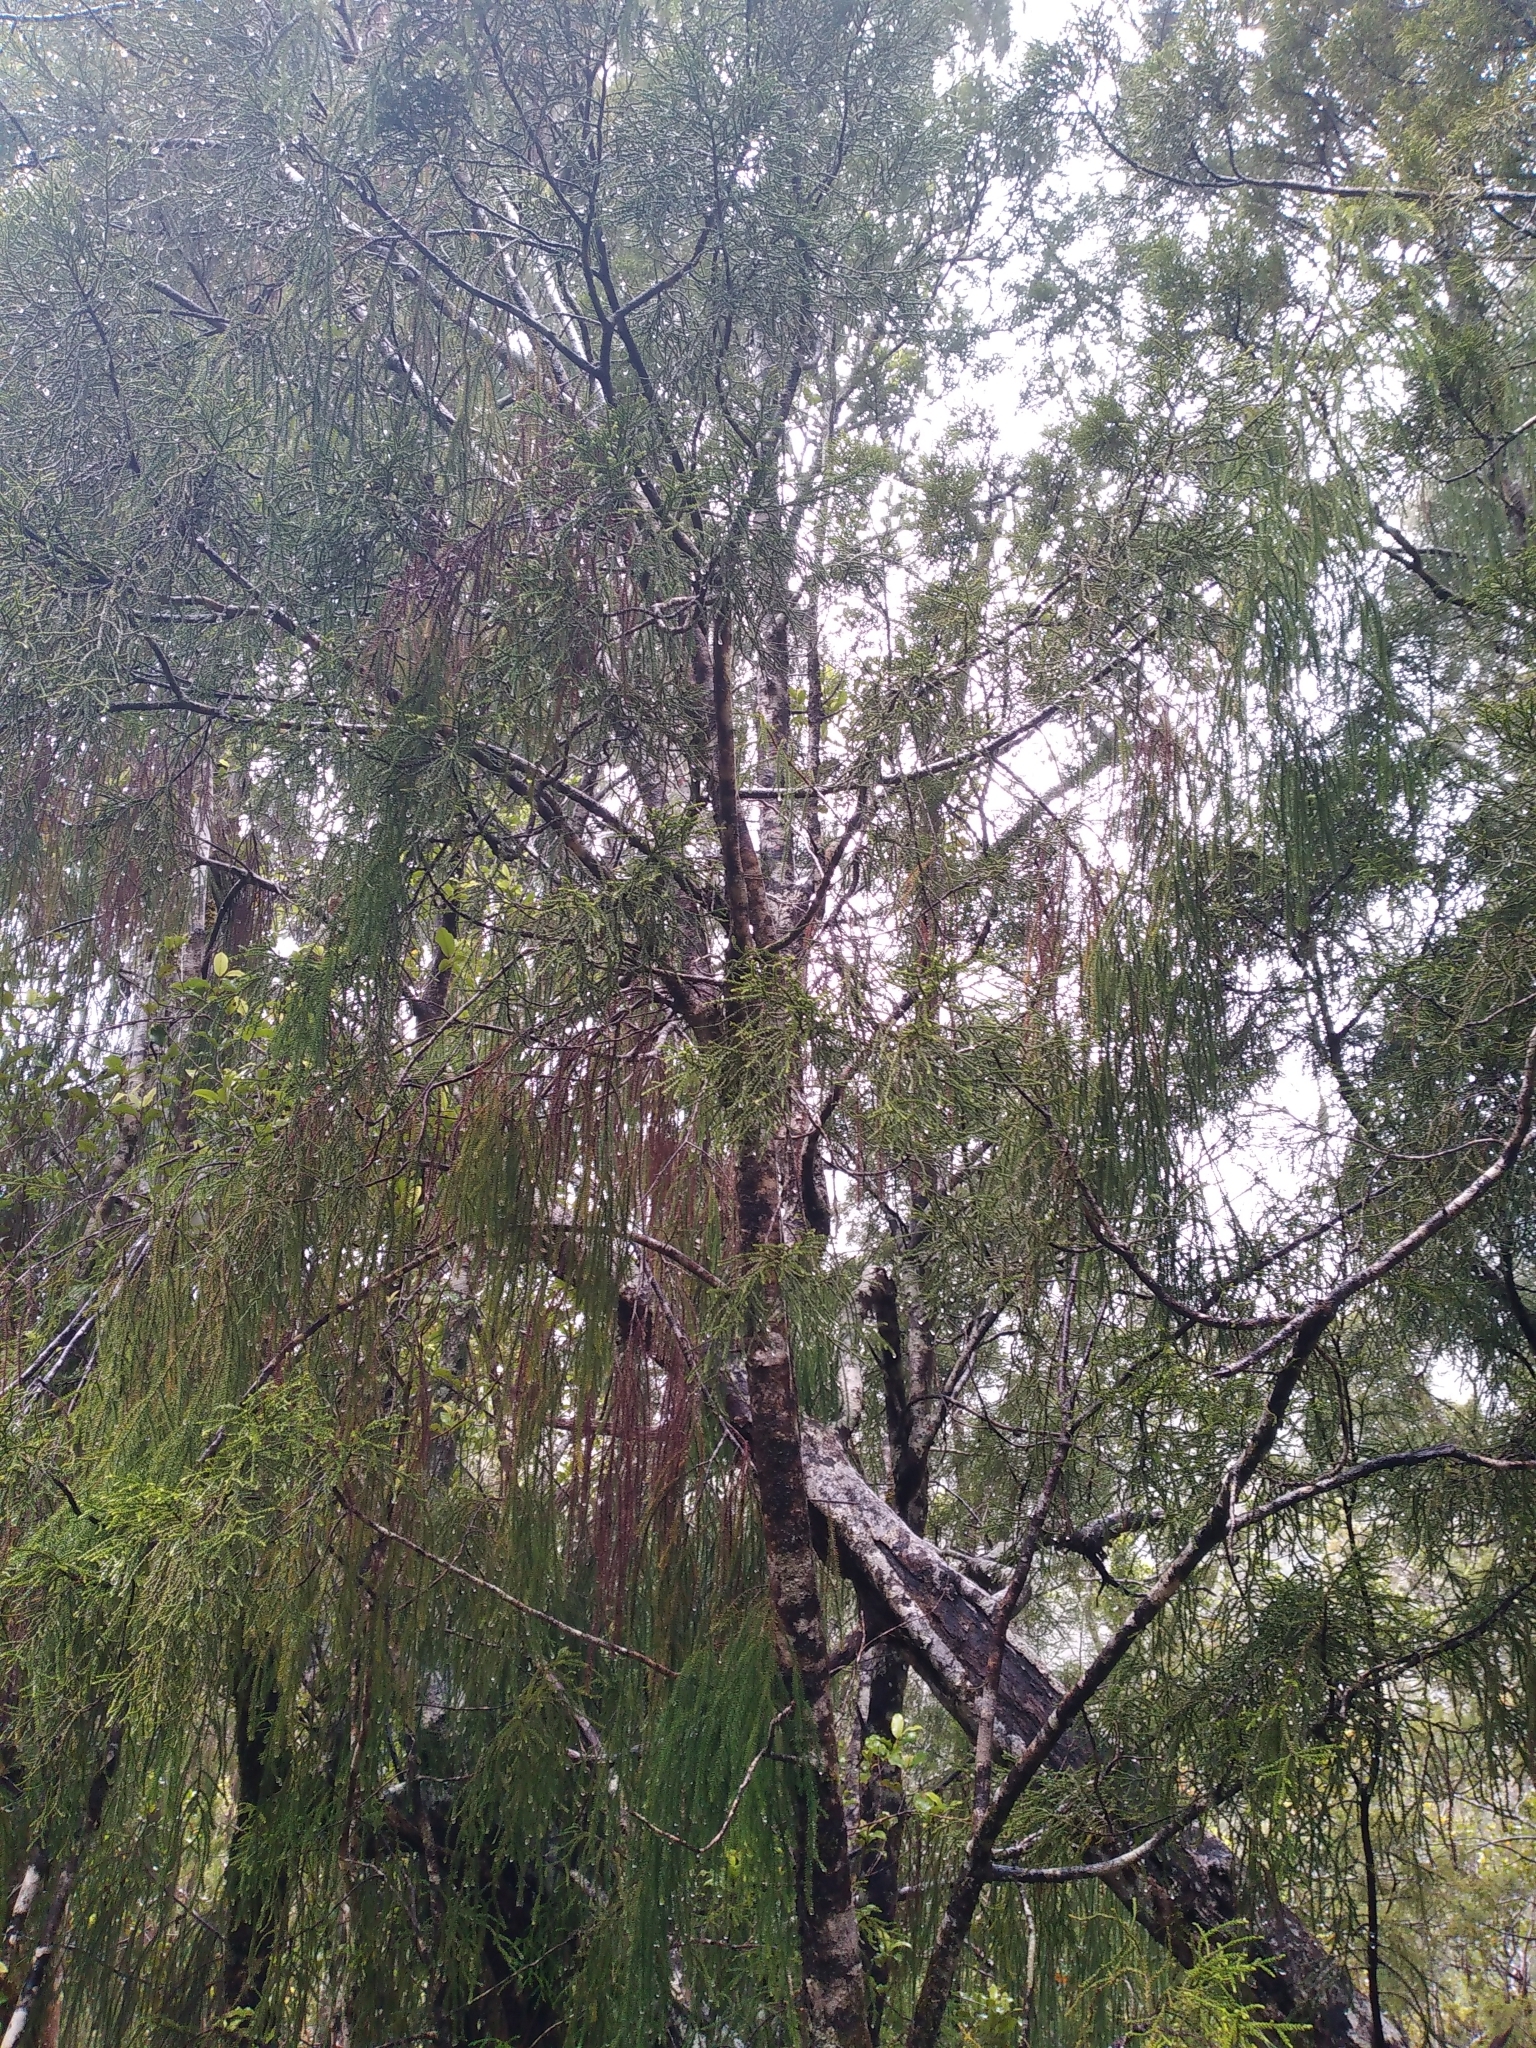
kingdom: Plantae
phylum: Tracheophyta
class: Pinopsida
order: Pinales
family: Podocarpaceae
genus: Lepidothamnus
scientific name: Lepidothamnus intermedius
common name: Yellow silver pine
